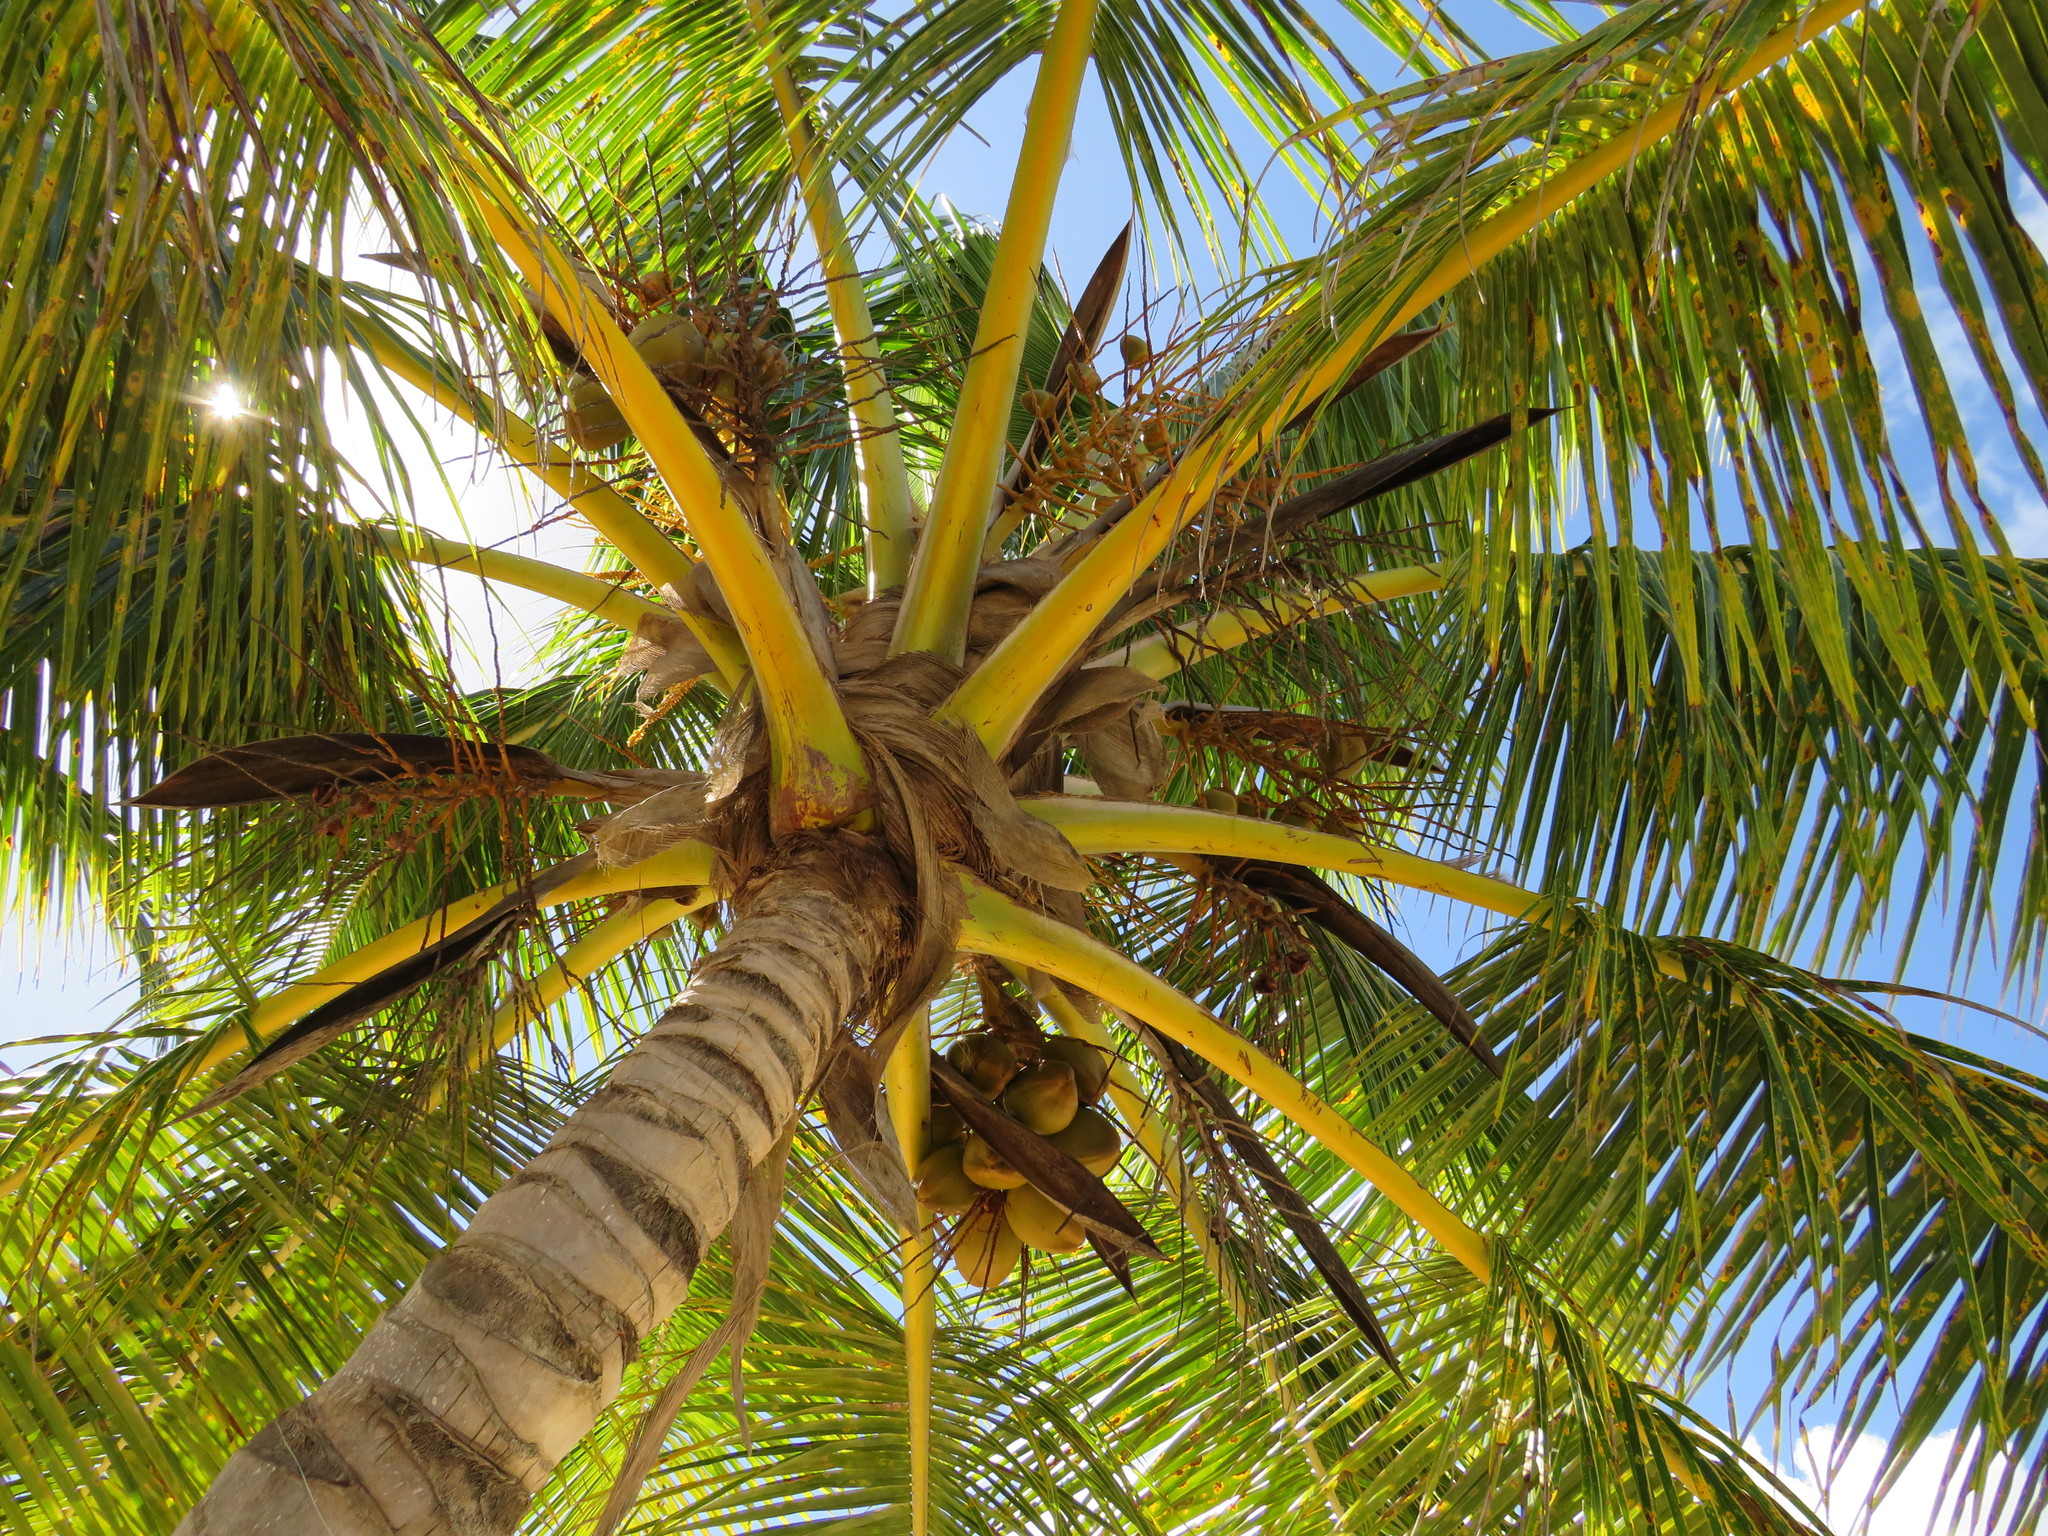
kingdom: Plantae
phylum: Tracheophyta
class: Liliopsida
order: Arecales
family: Arecaceae
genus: Cocos
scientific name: Cocos nucifera
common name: Coconut palm
